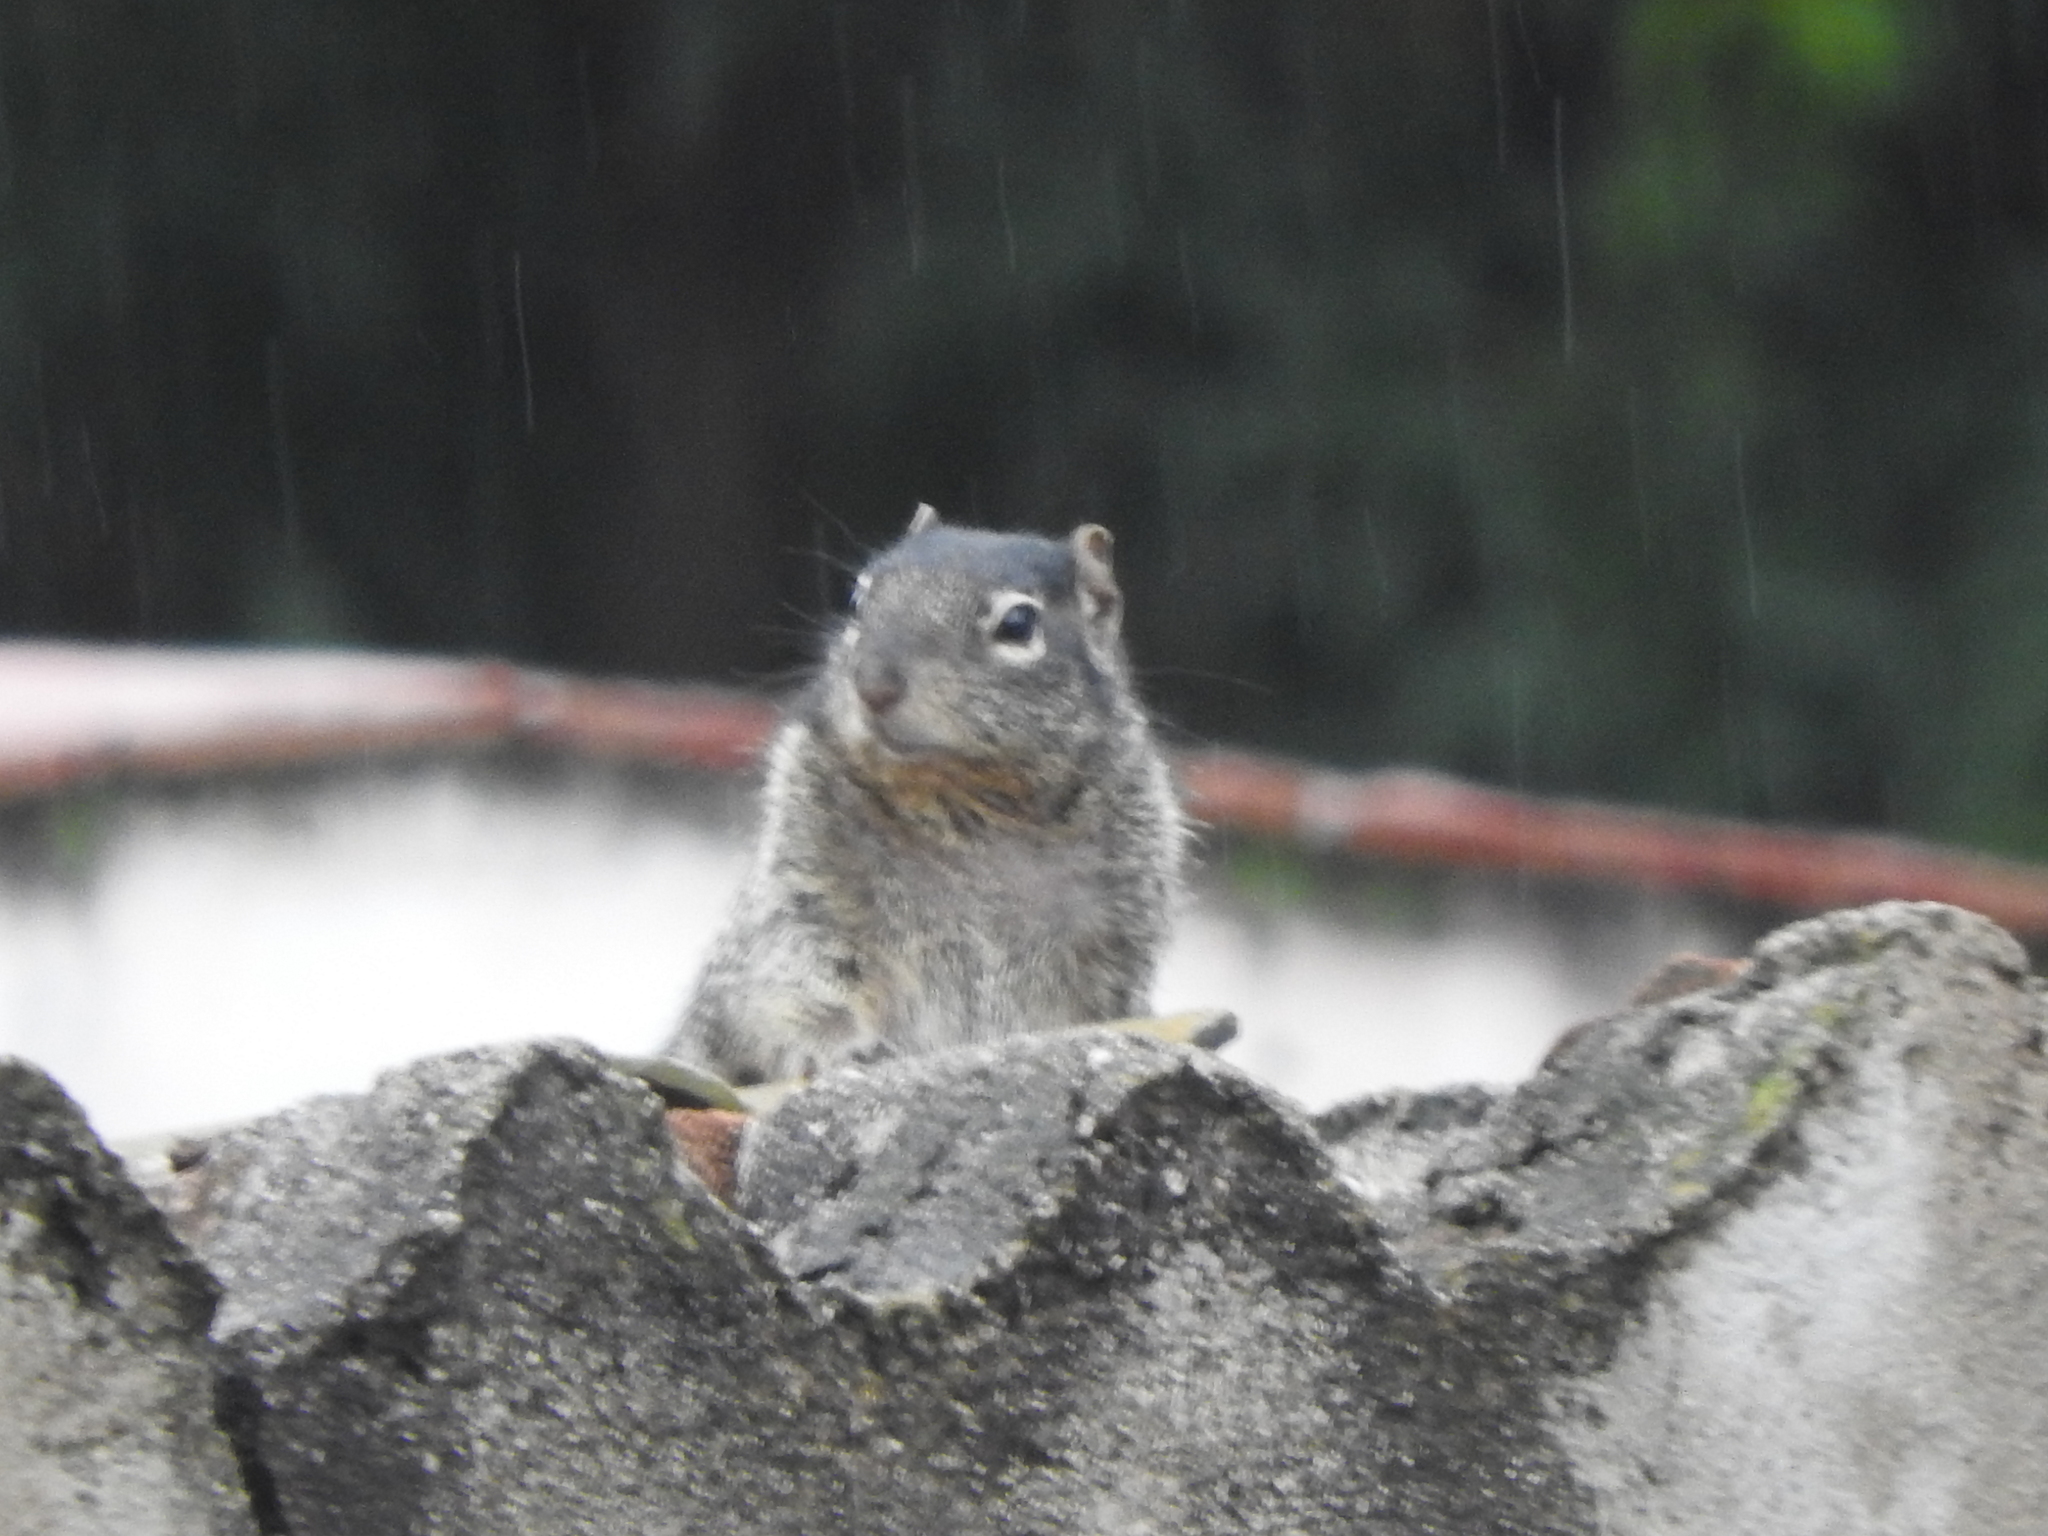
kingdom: Animalia
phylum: Chordata
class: Mammalia
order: Rodentia
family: Sciuridae
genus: Otospermophilus
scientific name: Otospermophilus variegatus
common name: Rock squirrel
